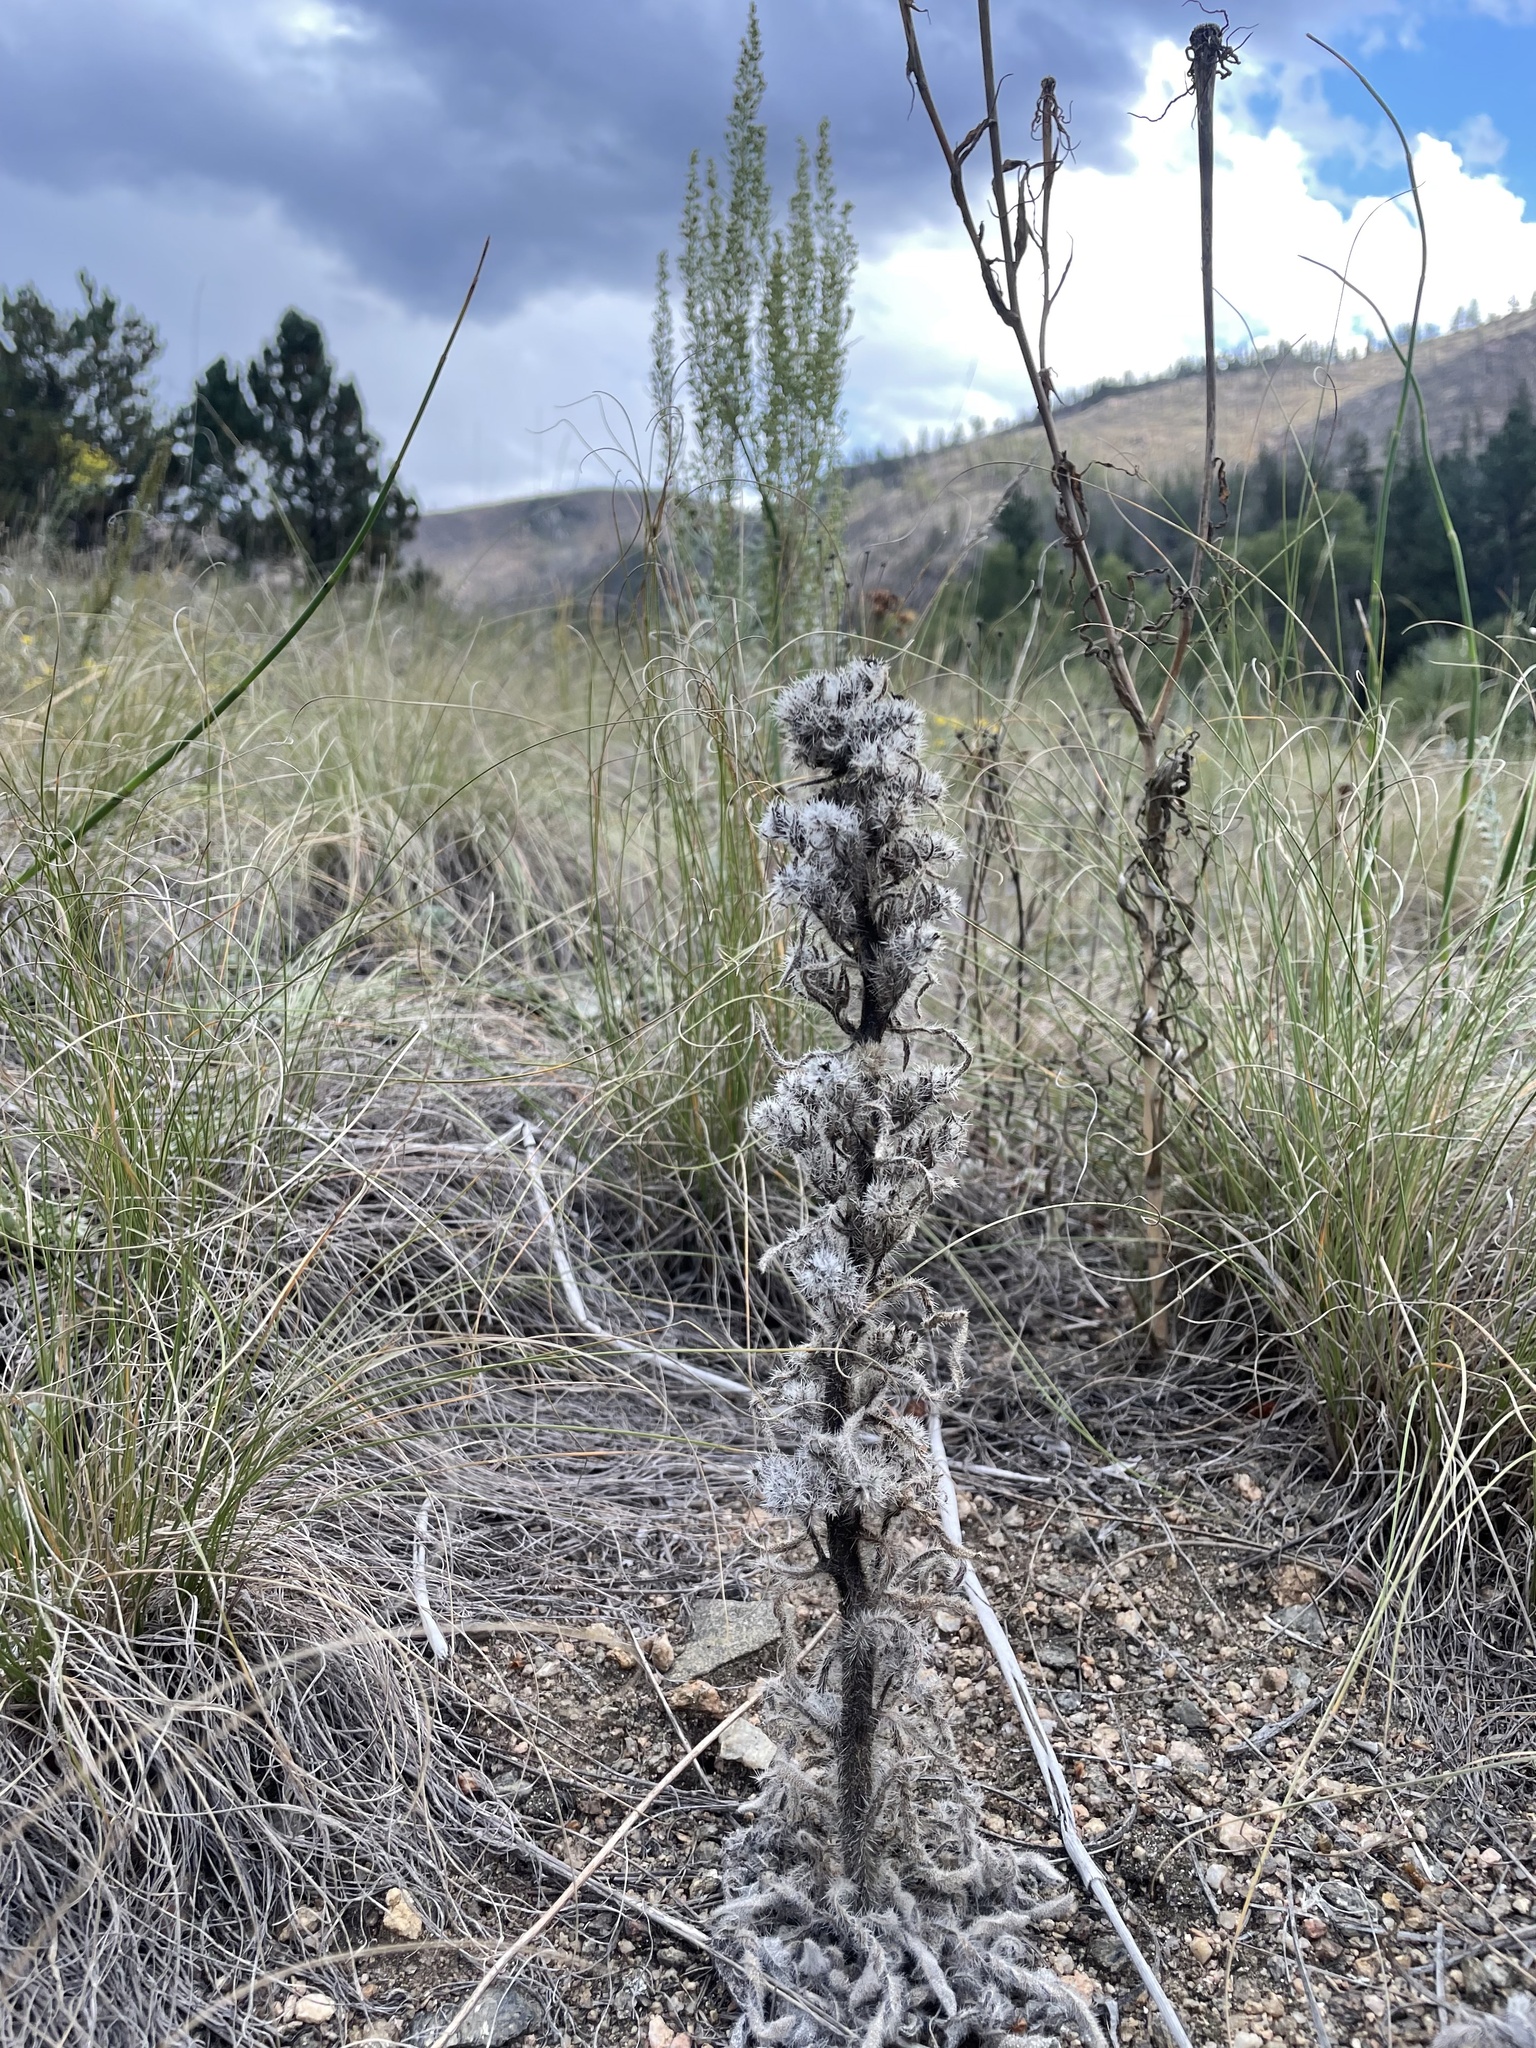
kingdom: Plantae
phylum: Tracheophyta
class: Magnoliopsida
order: Boraginales
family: Boraginaceae
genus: Oreocarya
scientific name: Oreocarya virgata
